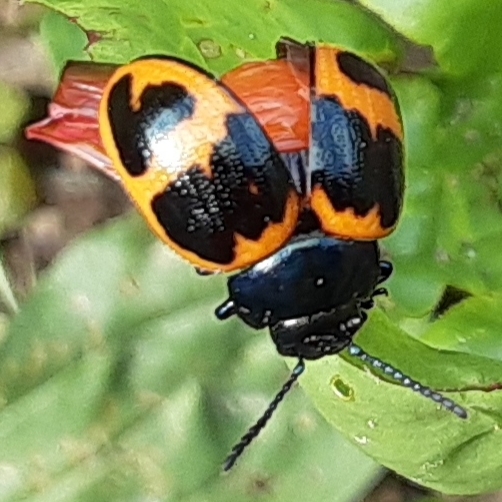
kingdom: Animalia
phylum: Arthropoda
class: Insecta
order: Coleoptera
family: Chrysomelidae
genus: Labidomera
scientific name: Labidomera clivicollis
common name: Swamp milkweed leaf beetle
